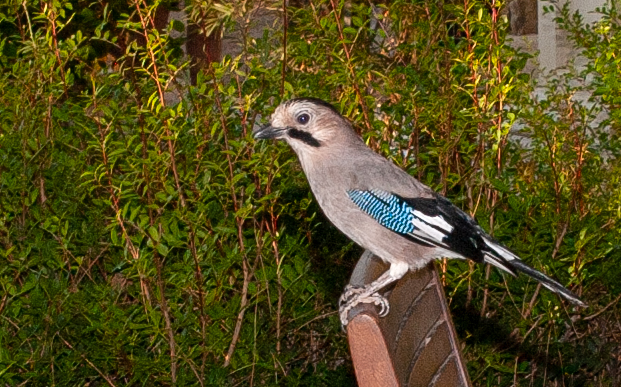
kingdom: Animalia
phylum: Chordata
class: Aves
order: Passeriformes
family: Corvidae
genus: Garrulus
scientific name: Garrulus glandarius
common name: Eurasian jay
